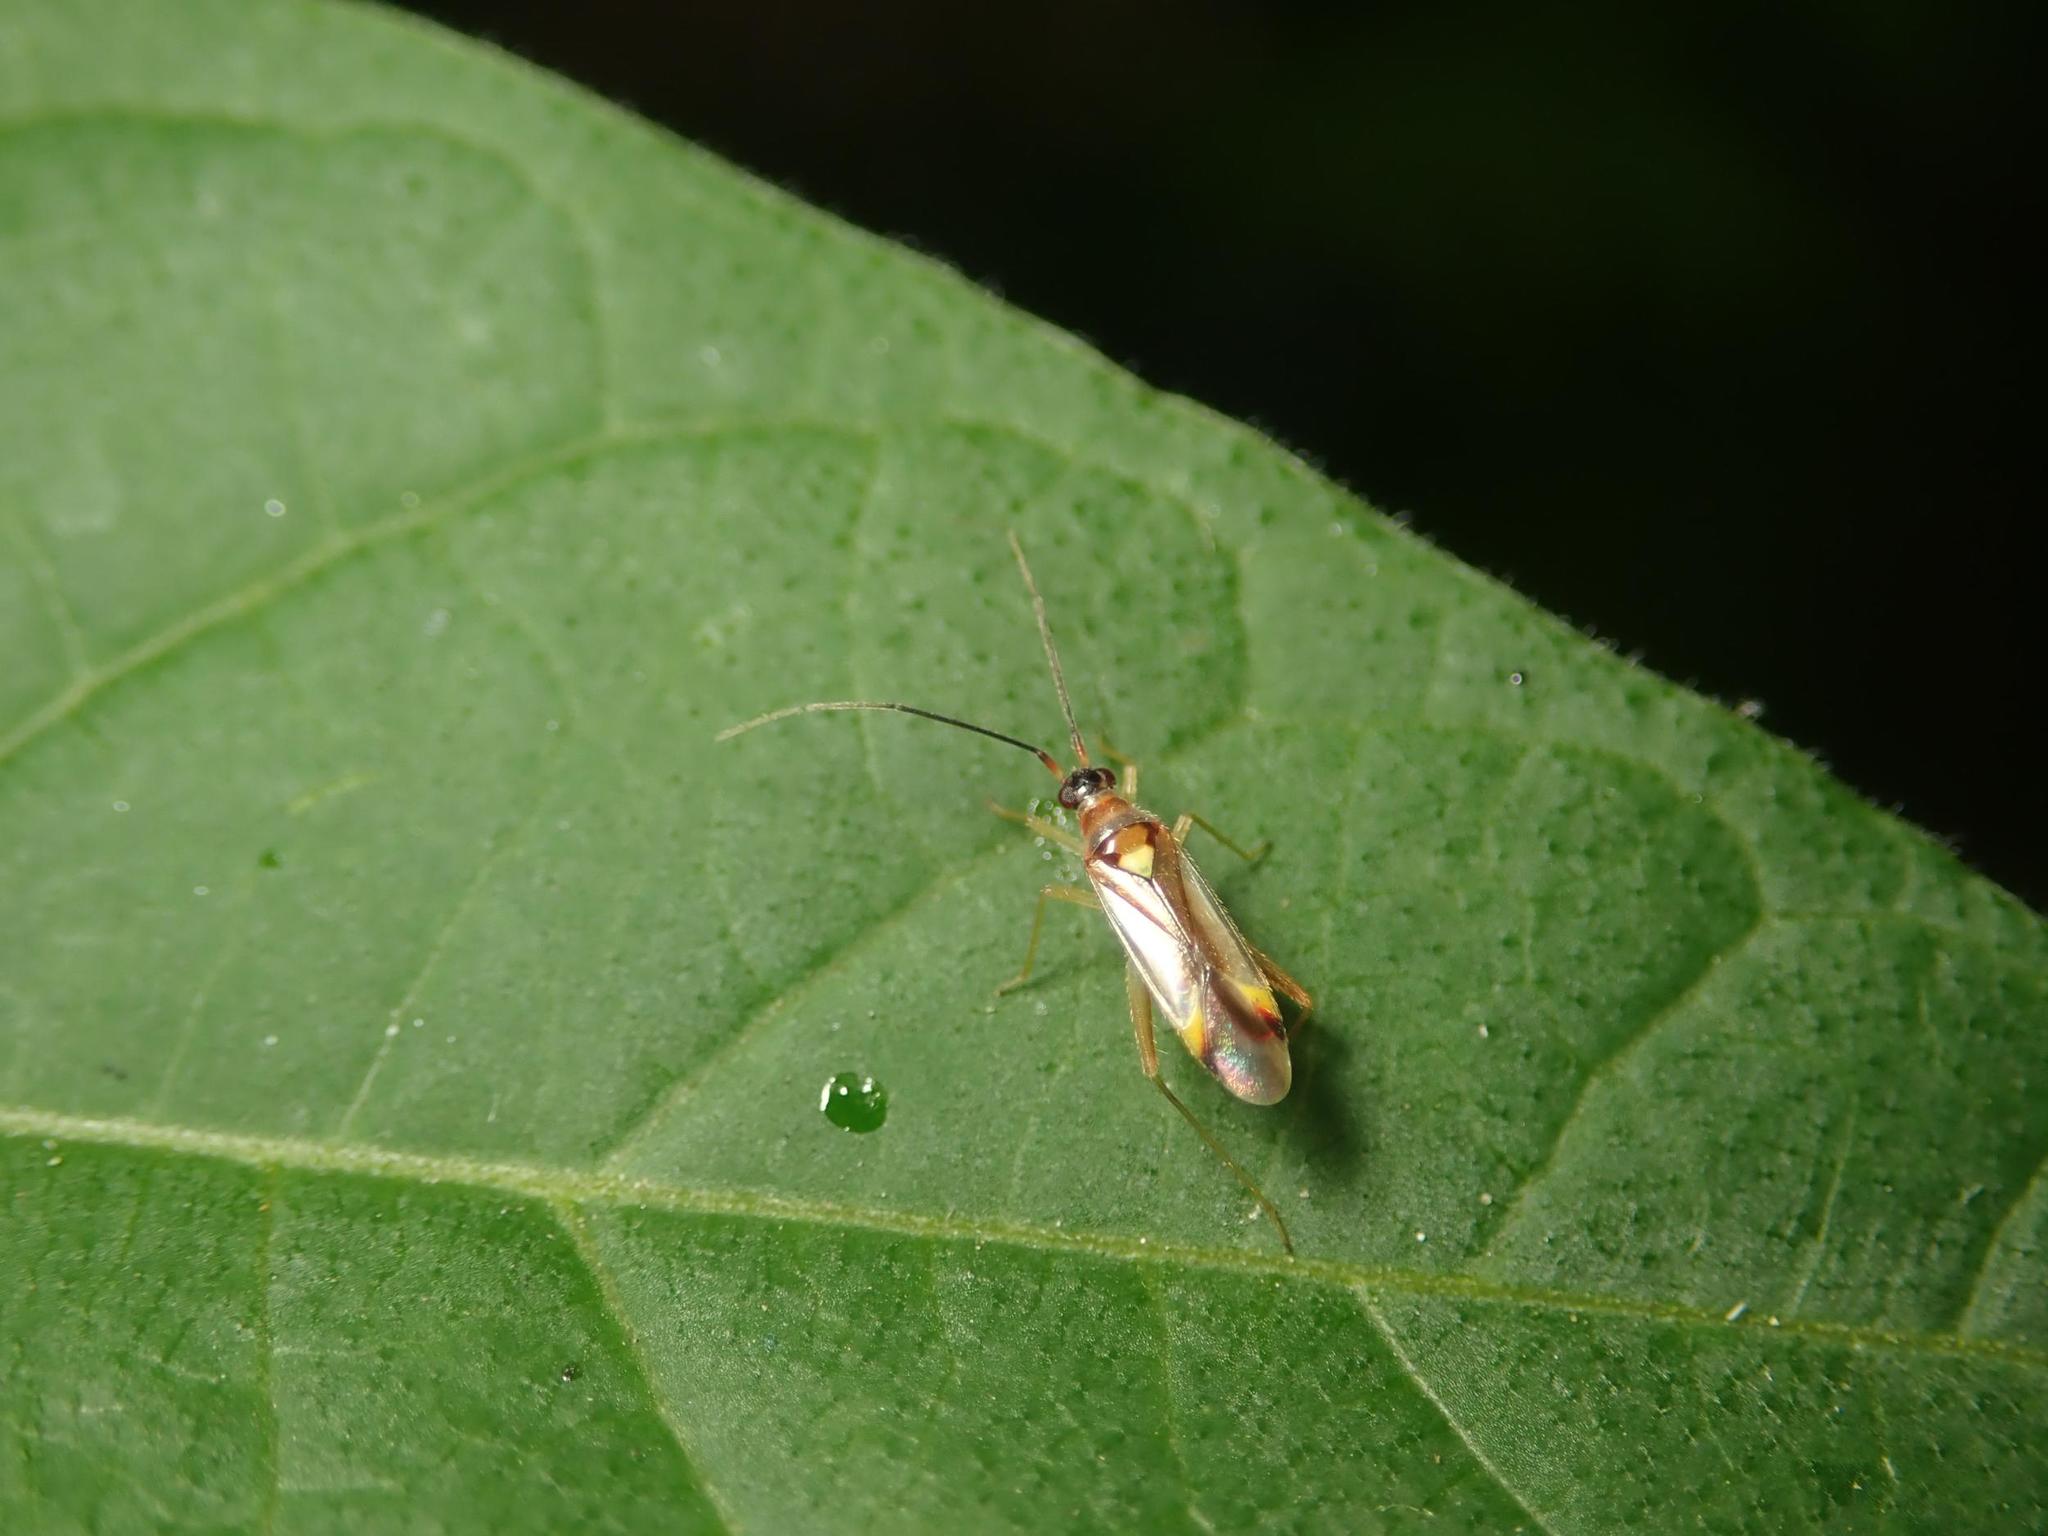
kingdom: Animalia
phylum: Arthropoda
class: Insecta
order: Hemiptera
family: Miridae
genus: Campyloneura
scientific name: Campyloneura virgula
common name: Predatory bug
